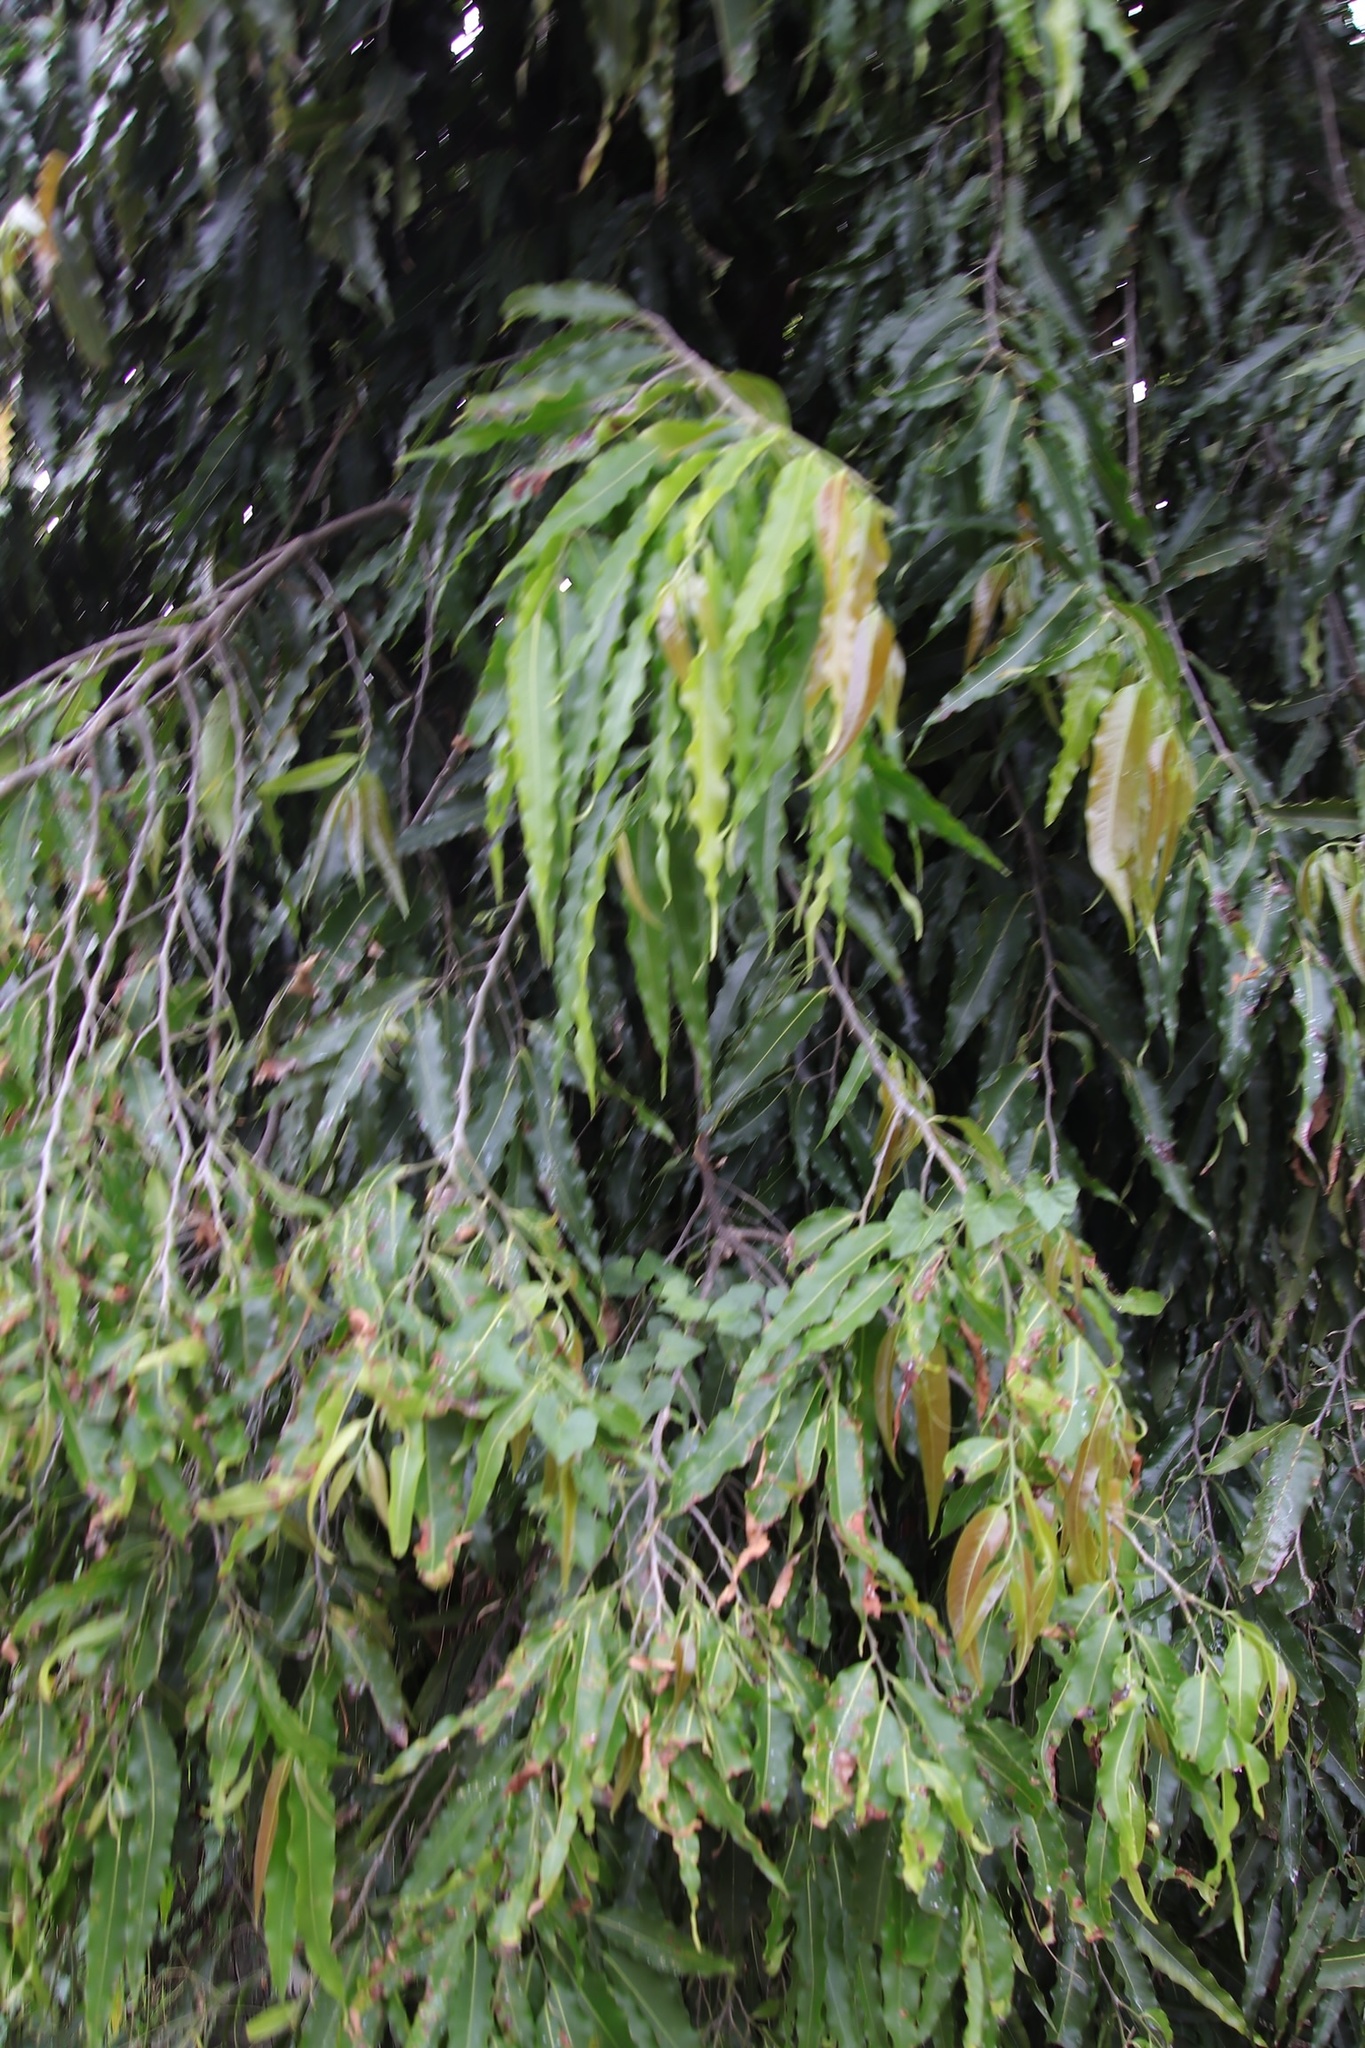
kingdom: Plantae
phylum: Tracheophyta
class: Magnoliopsida
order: Magnoliales
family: Annonaceae
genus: Polyalthia
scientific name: Polyalthia longifolia
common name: Cemetery-tree
